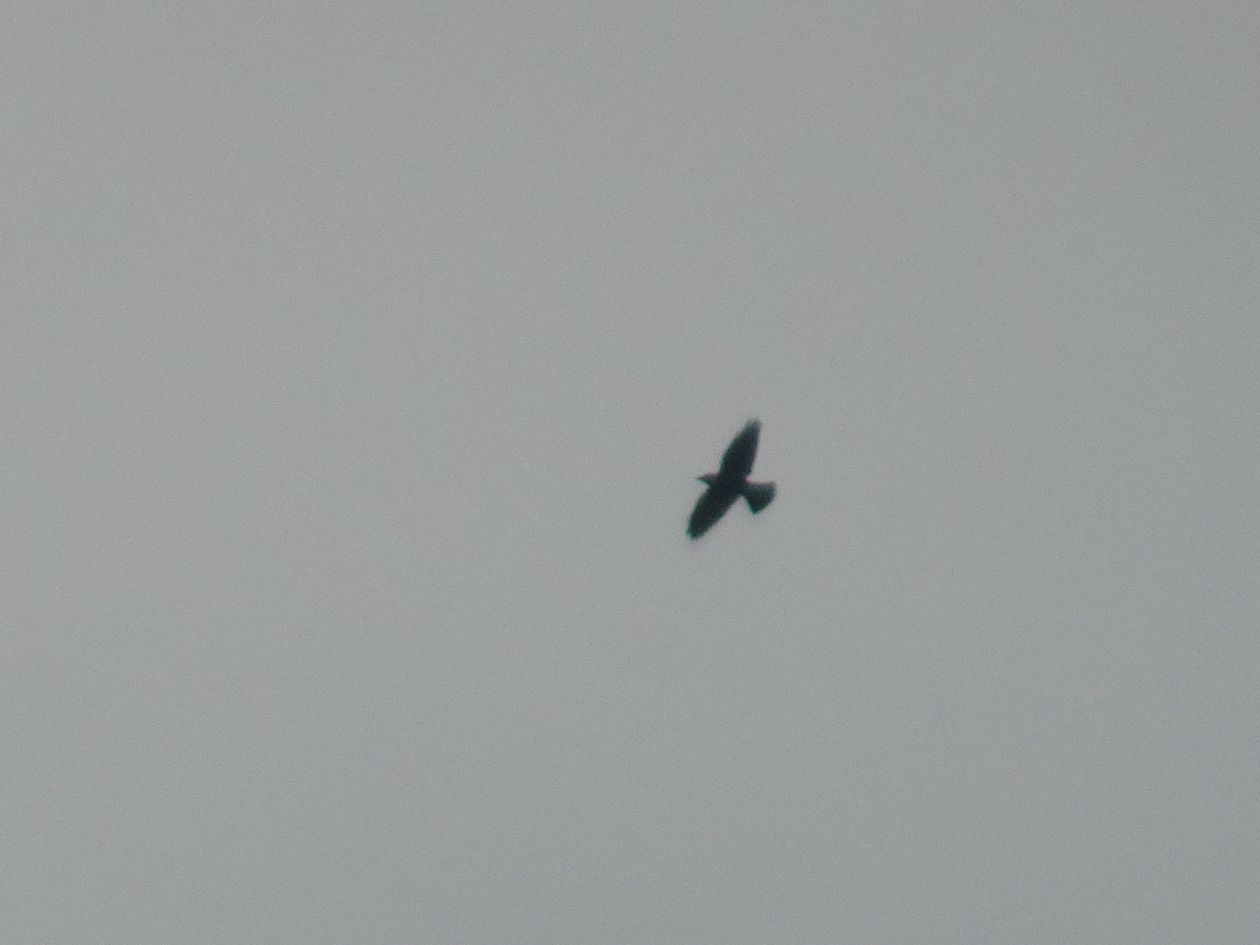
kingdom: Animalia
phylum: Chordata
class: Aves
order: Passeriformes
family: Corvidae
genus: Coloeus
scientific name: Coloeus monedula
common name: Western jackdaw
